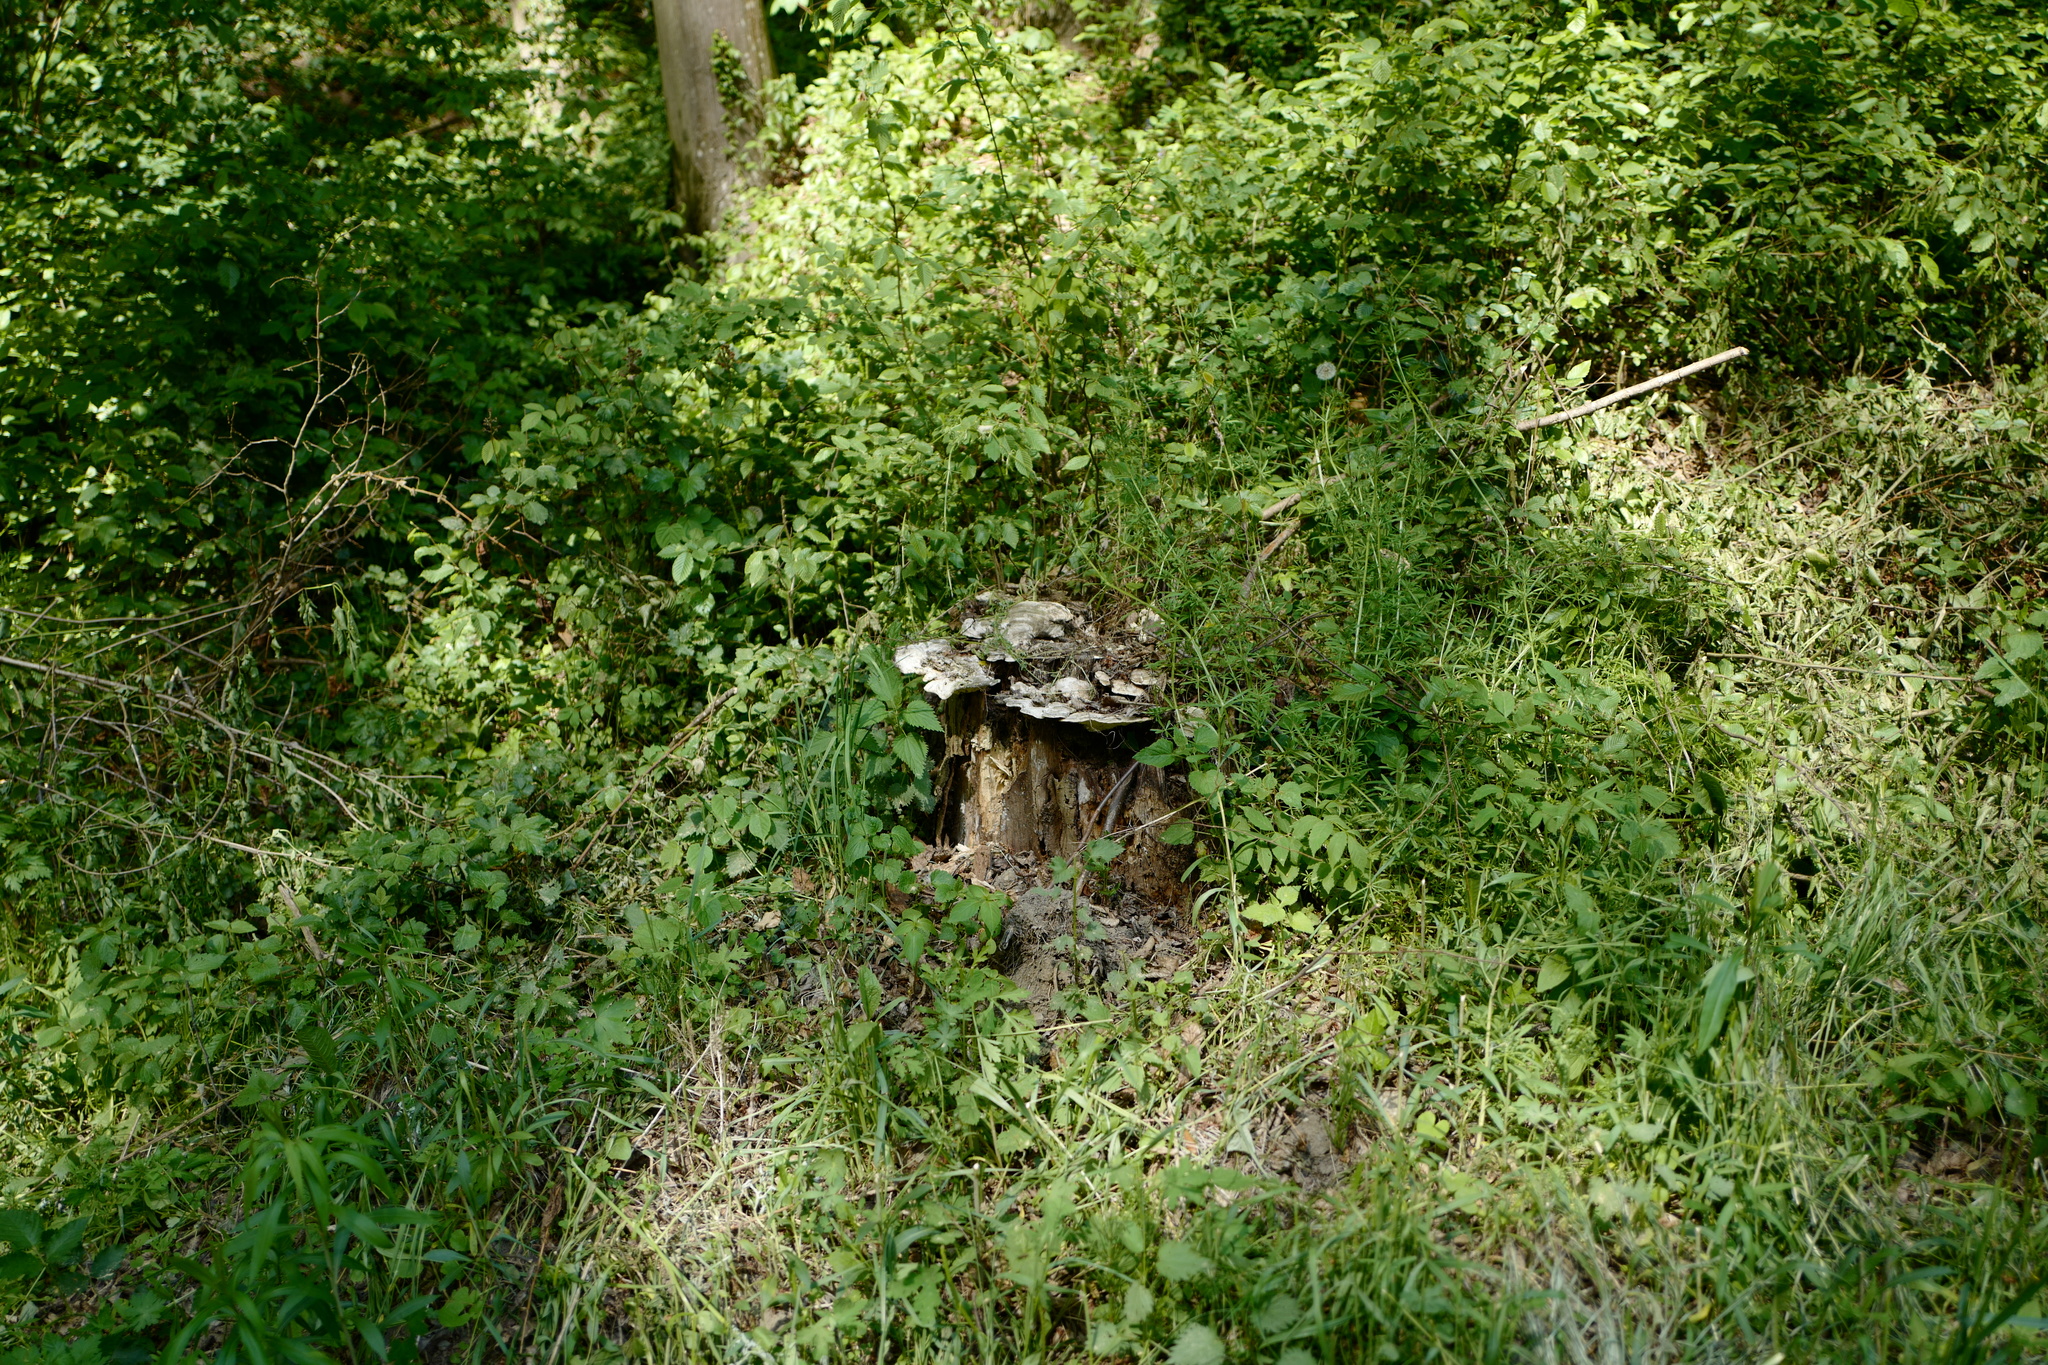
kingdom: Fungi
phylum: Basidiomycota
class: Agaricomycetes
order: Polyporales
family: Polyporaceae
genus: Trametes
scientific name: Trametes gibbosa
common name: Lumpy bracket
